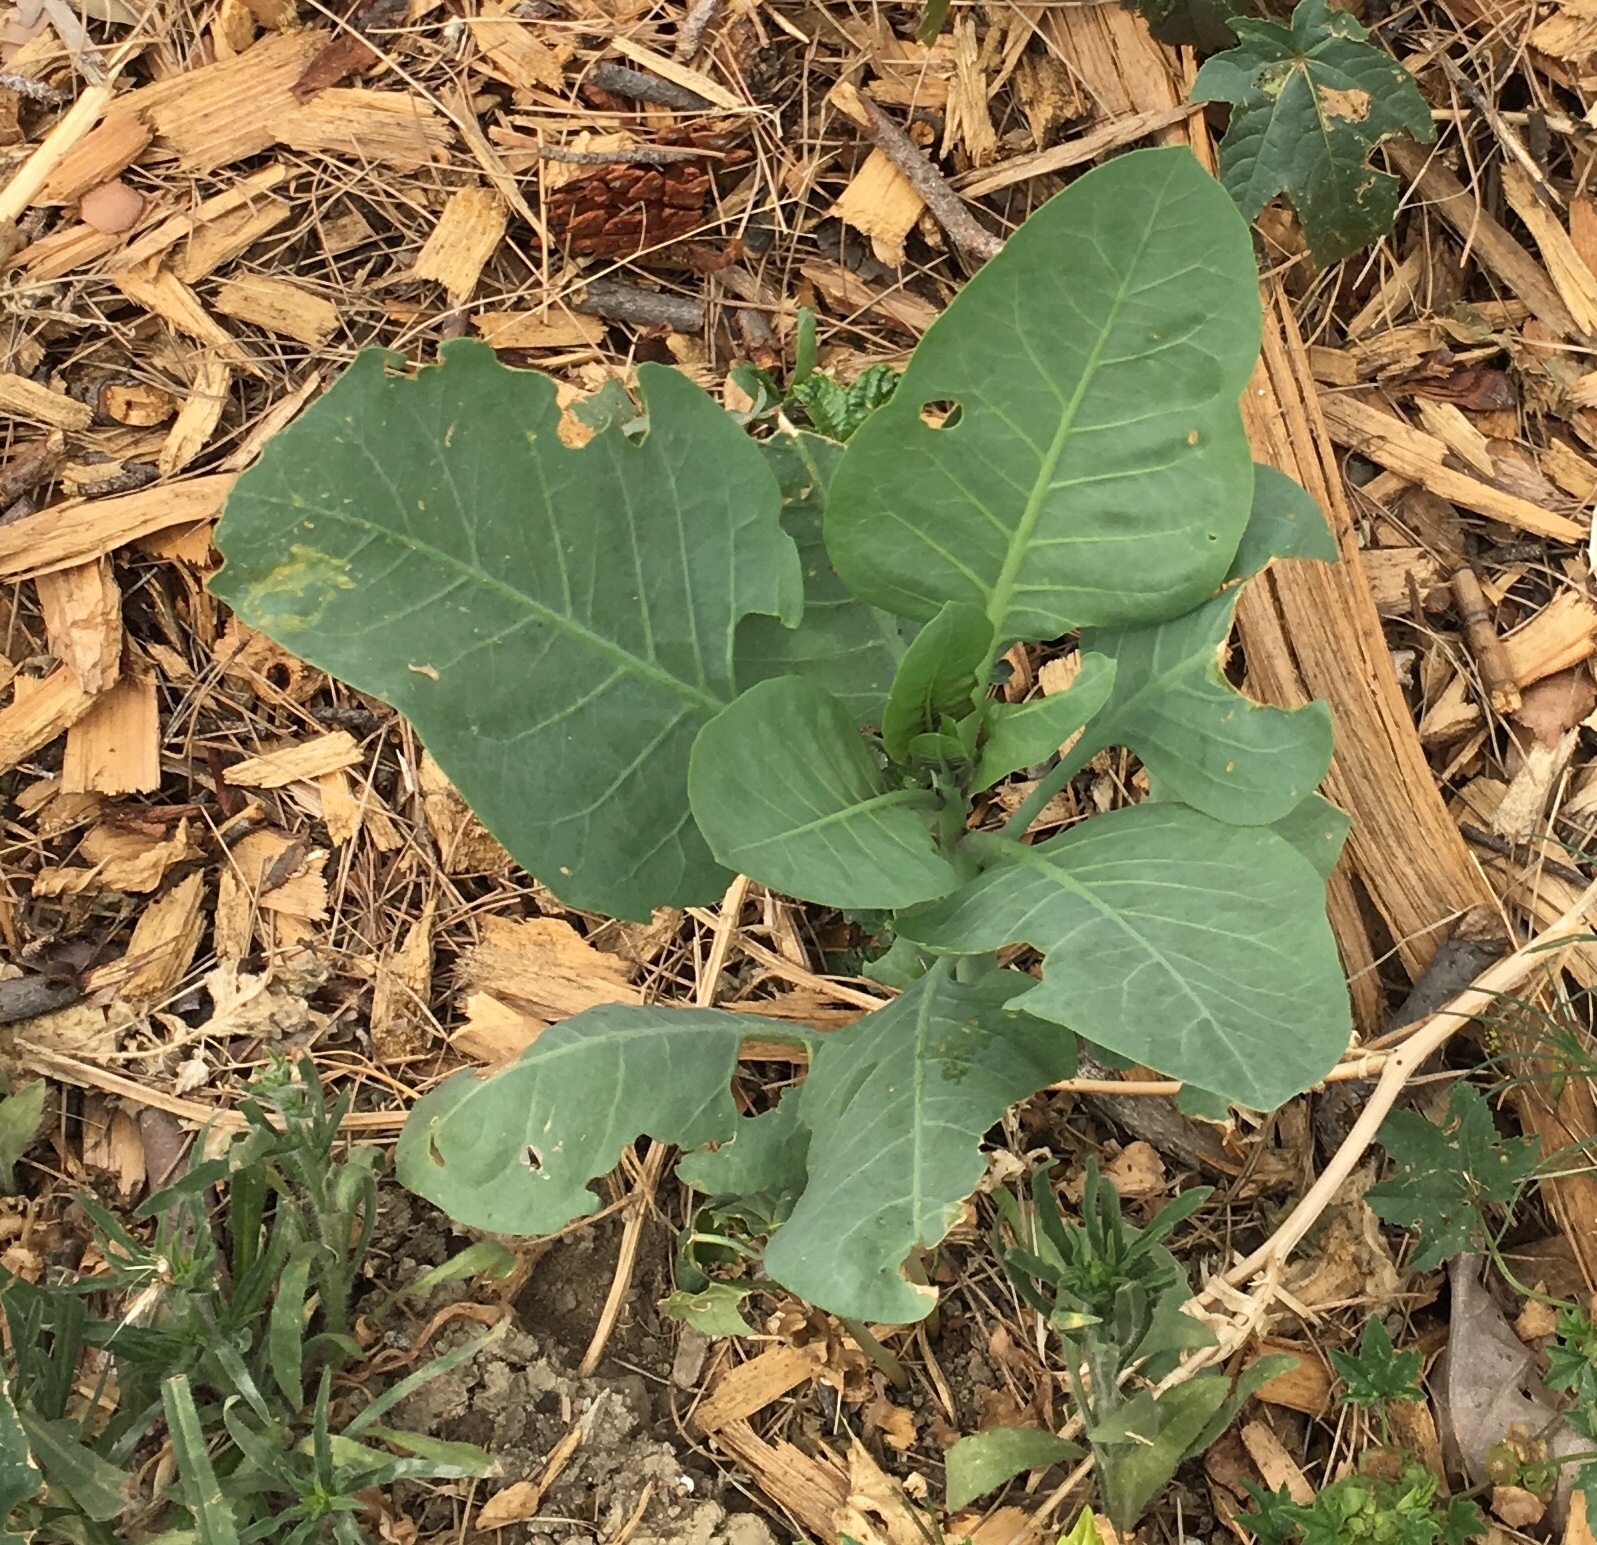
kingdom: Plantae
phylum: Tracheophyta
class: Magnoliopsida
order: Solanales
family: Solanaceae
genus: Nicotiana
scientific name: Nicotiana glauca
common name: Tree tobacco
